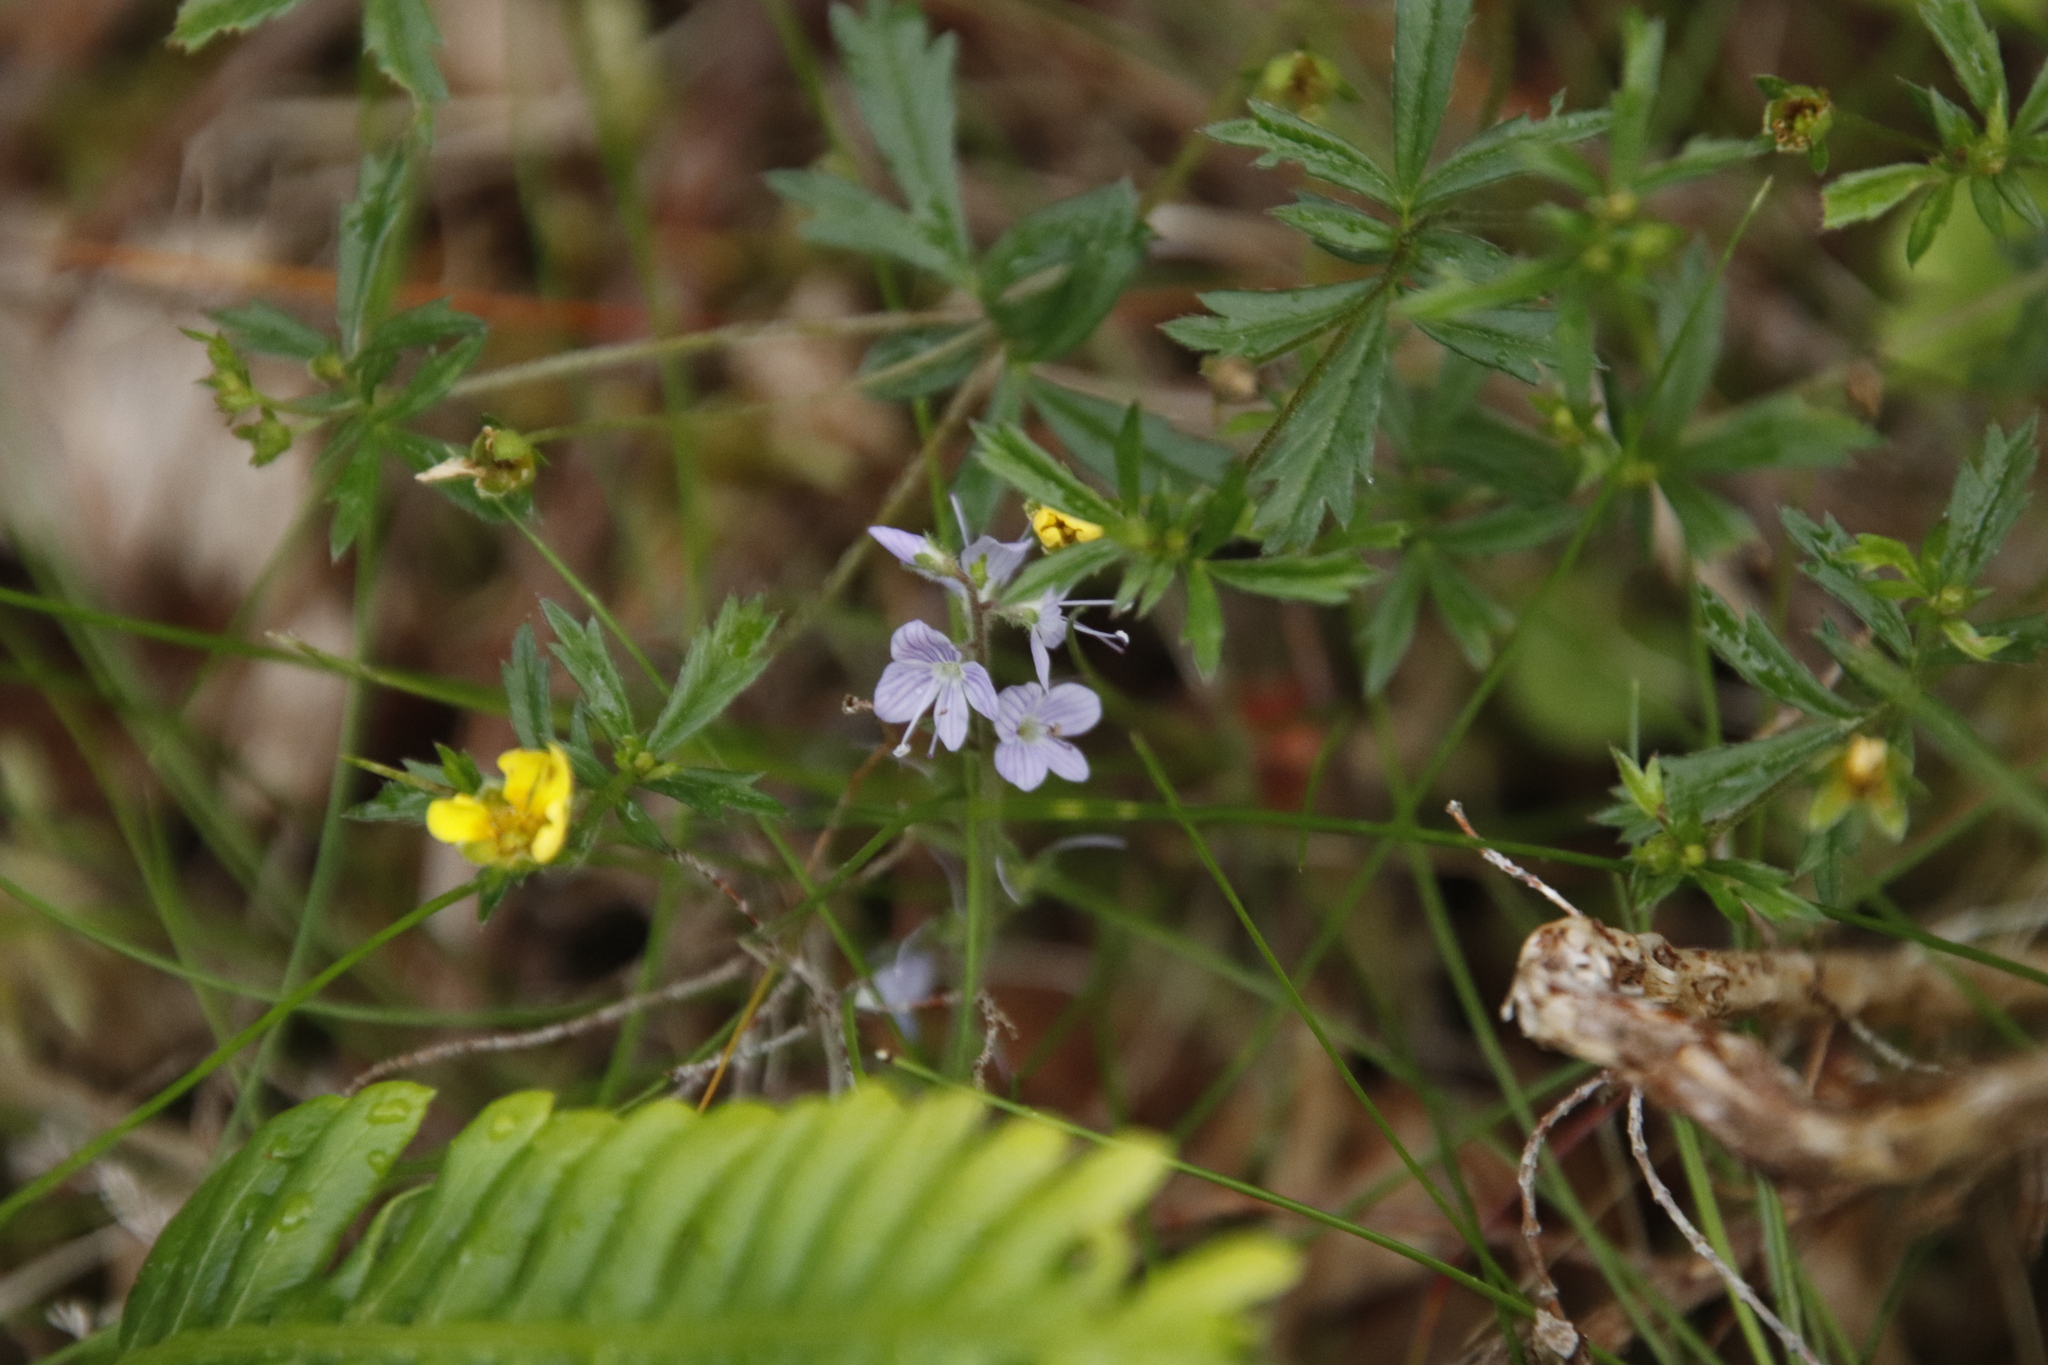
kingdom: Plantae
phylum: Tracheophyta
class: Magnoliopsida
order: Rosales
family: Rosaceae
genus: Potentilla
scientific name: Potentilla erecta
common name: Tormentil
